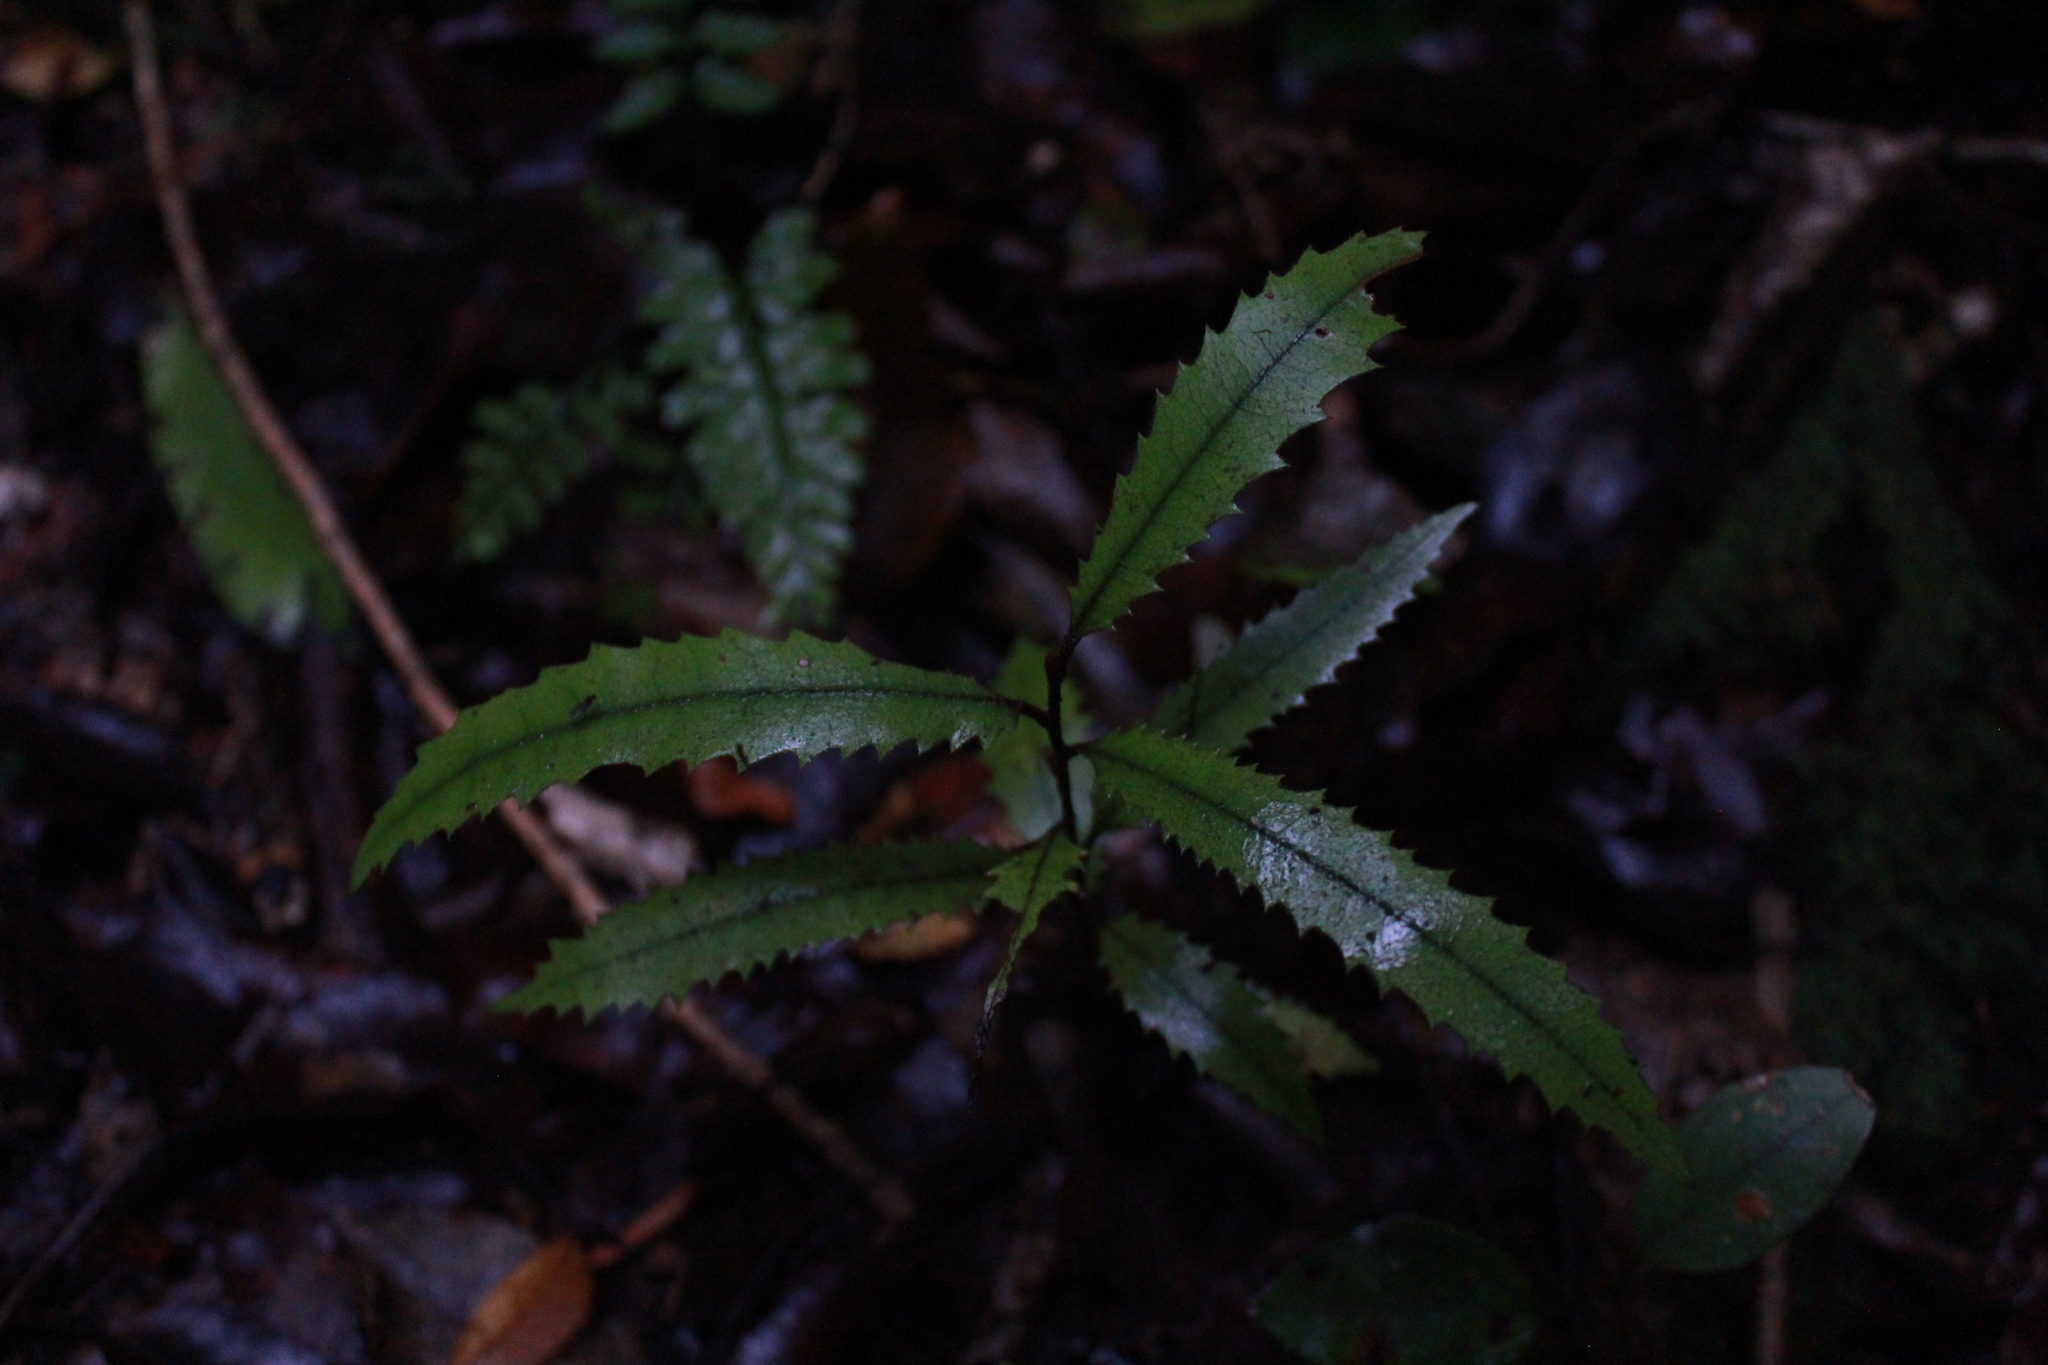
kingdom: Plantae
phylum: Tracheophyta
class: Magnoliopsida
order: Proteales
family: Proteaceae
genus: Knightia
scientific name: Knightia excelsa
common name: New zealand-honeysuckle
